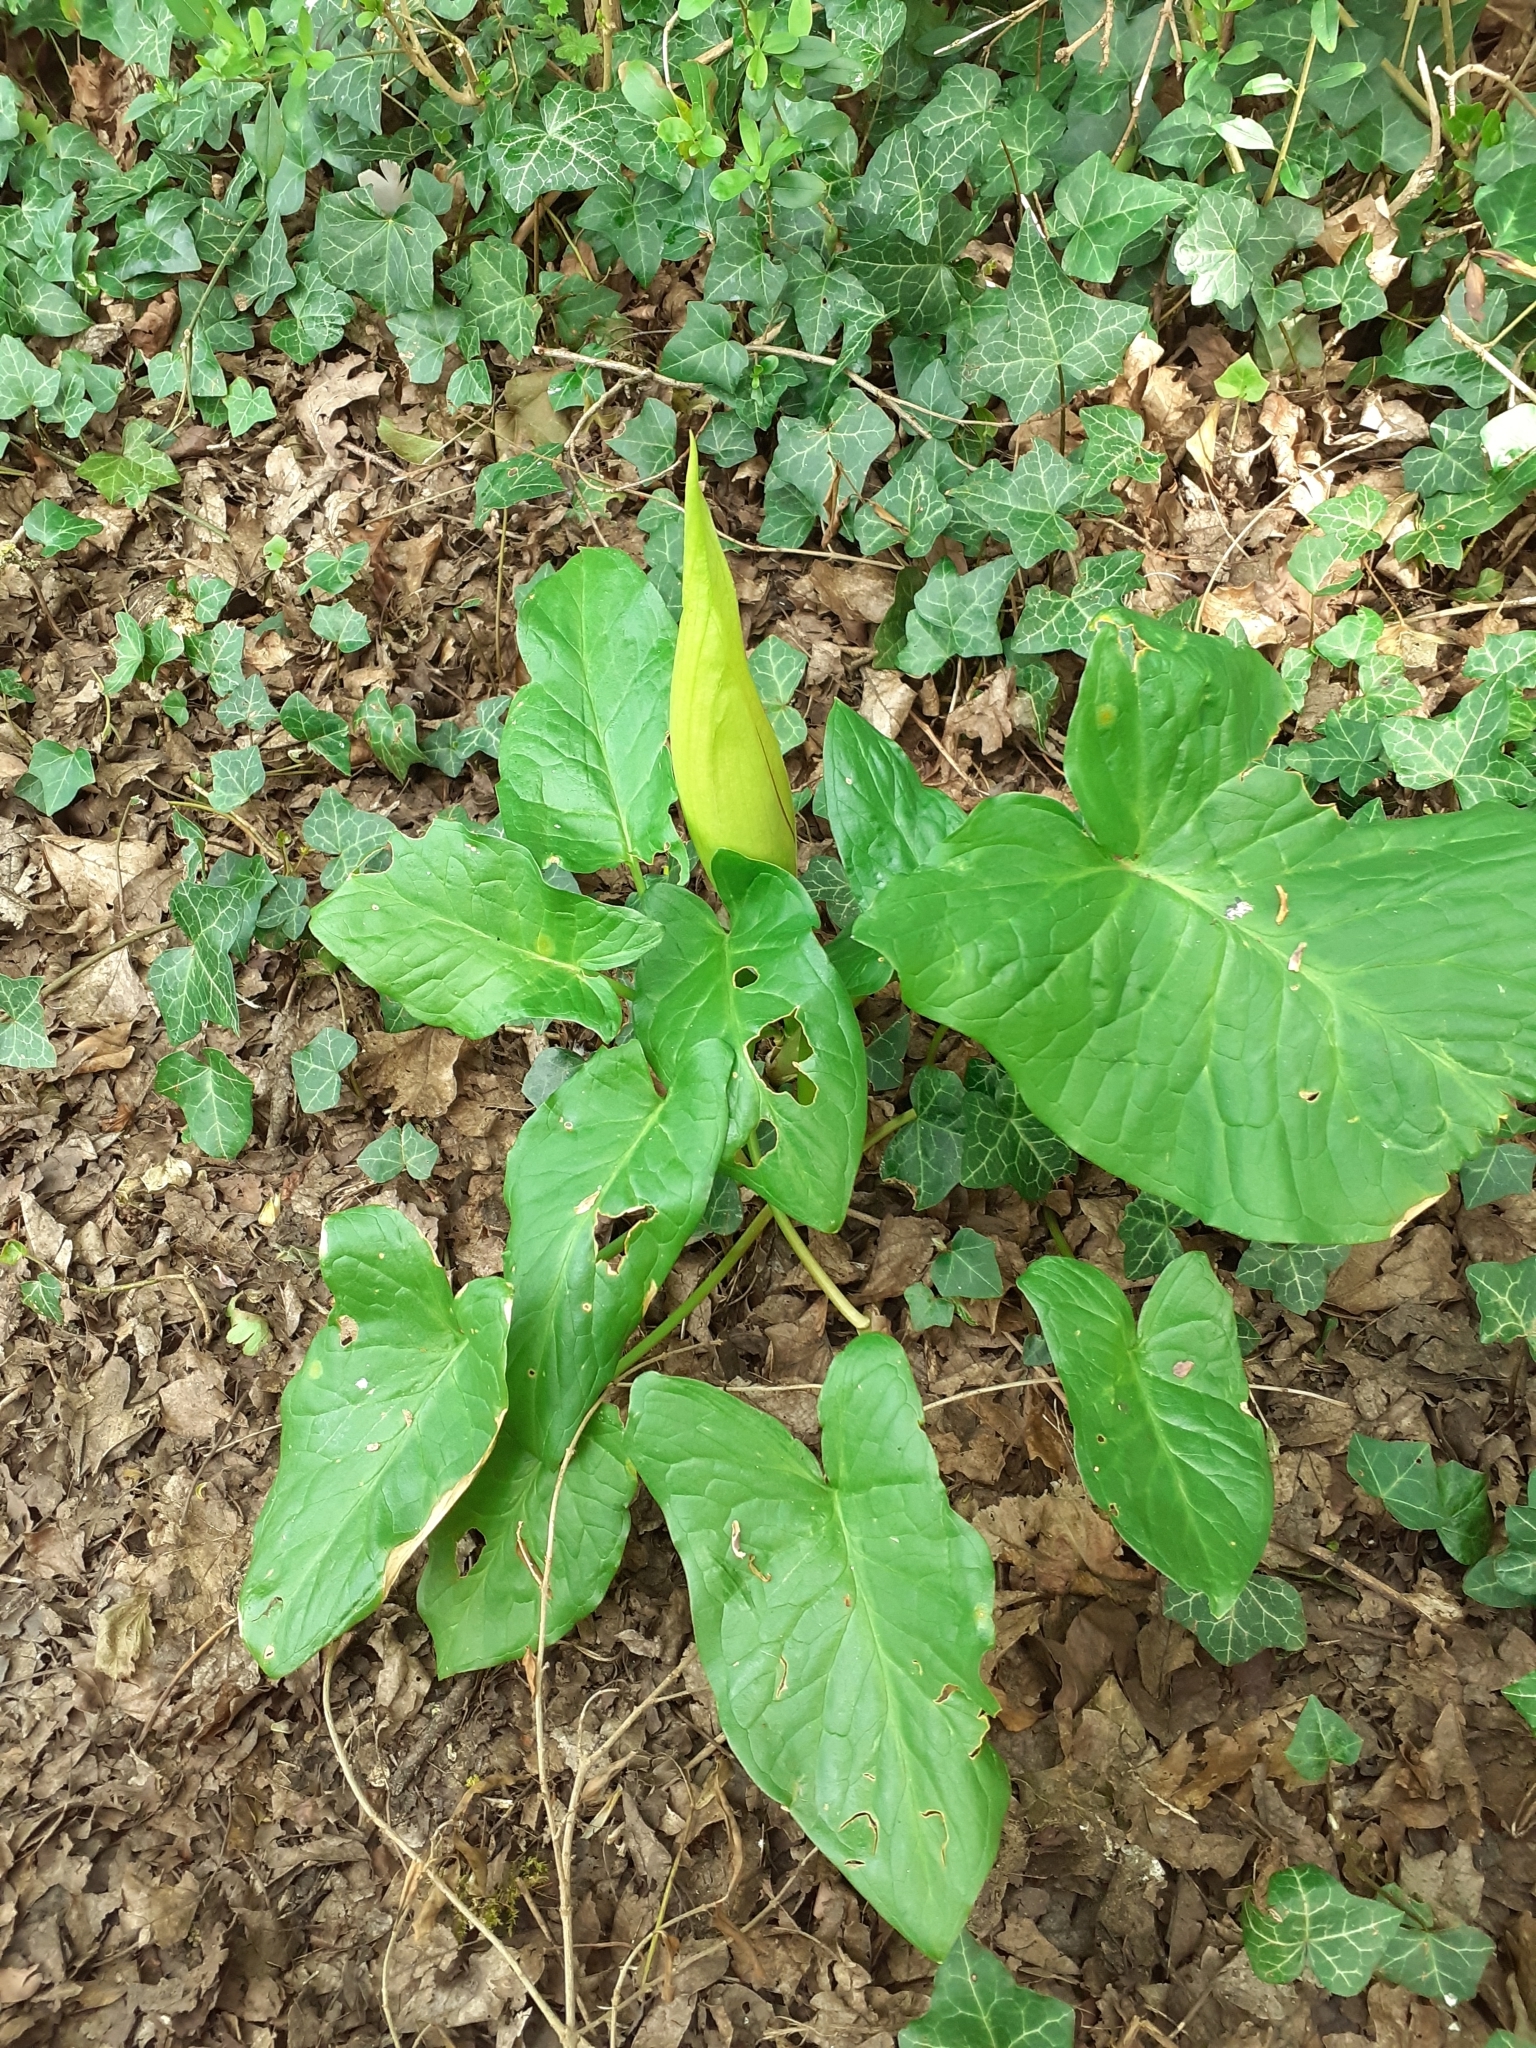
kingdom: Plantae
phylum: Tracheophyta
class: Liliopsida
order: Alismatales
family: Araceae
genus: Arum
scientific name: Arum maculatum
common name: Lords-and-ladies
